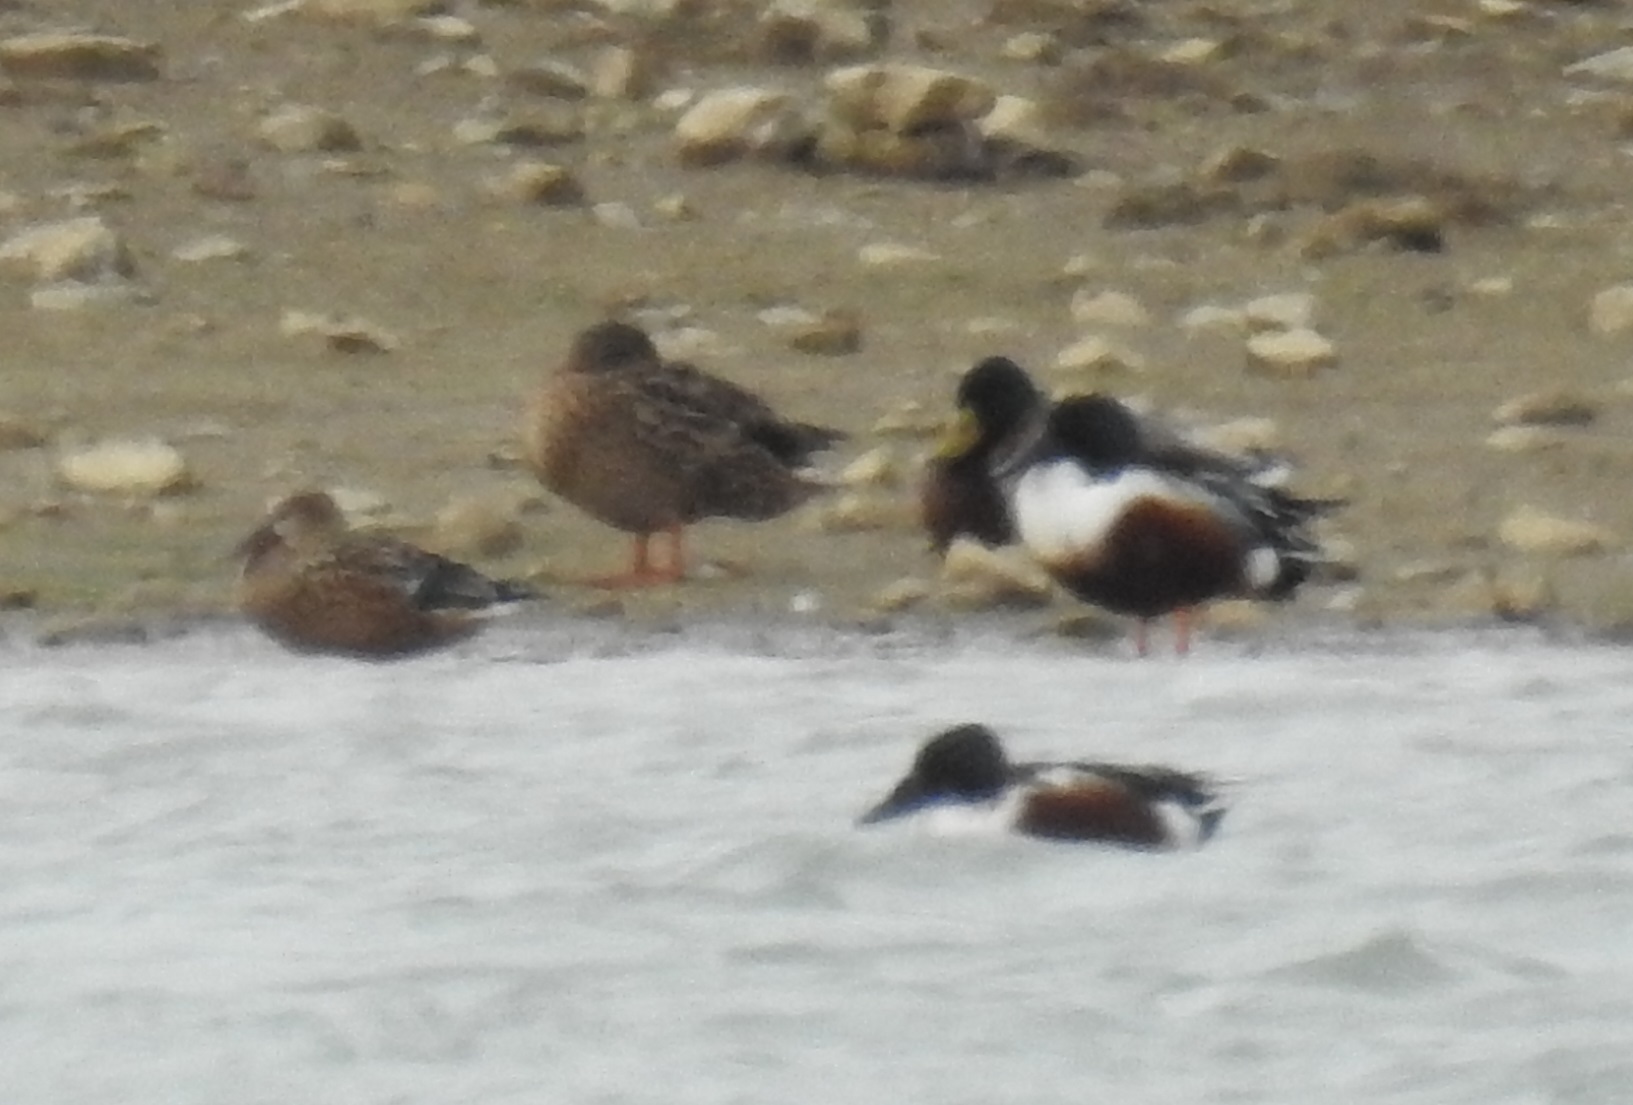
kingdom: Animalia
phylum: Chordata
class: Aves
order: Anseriformes
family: Anatidae
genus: Spatula
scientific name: Spatula clypeata
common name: Northern shoveler
